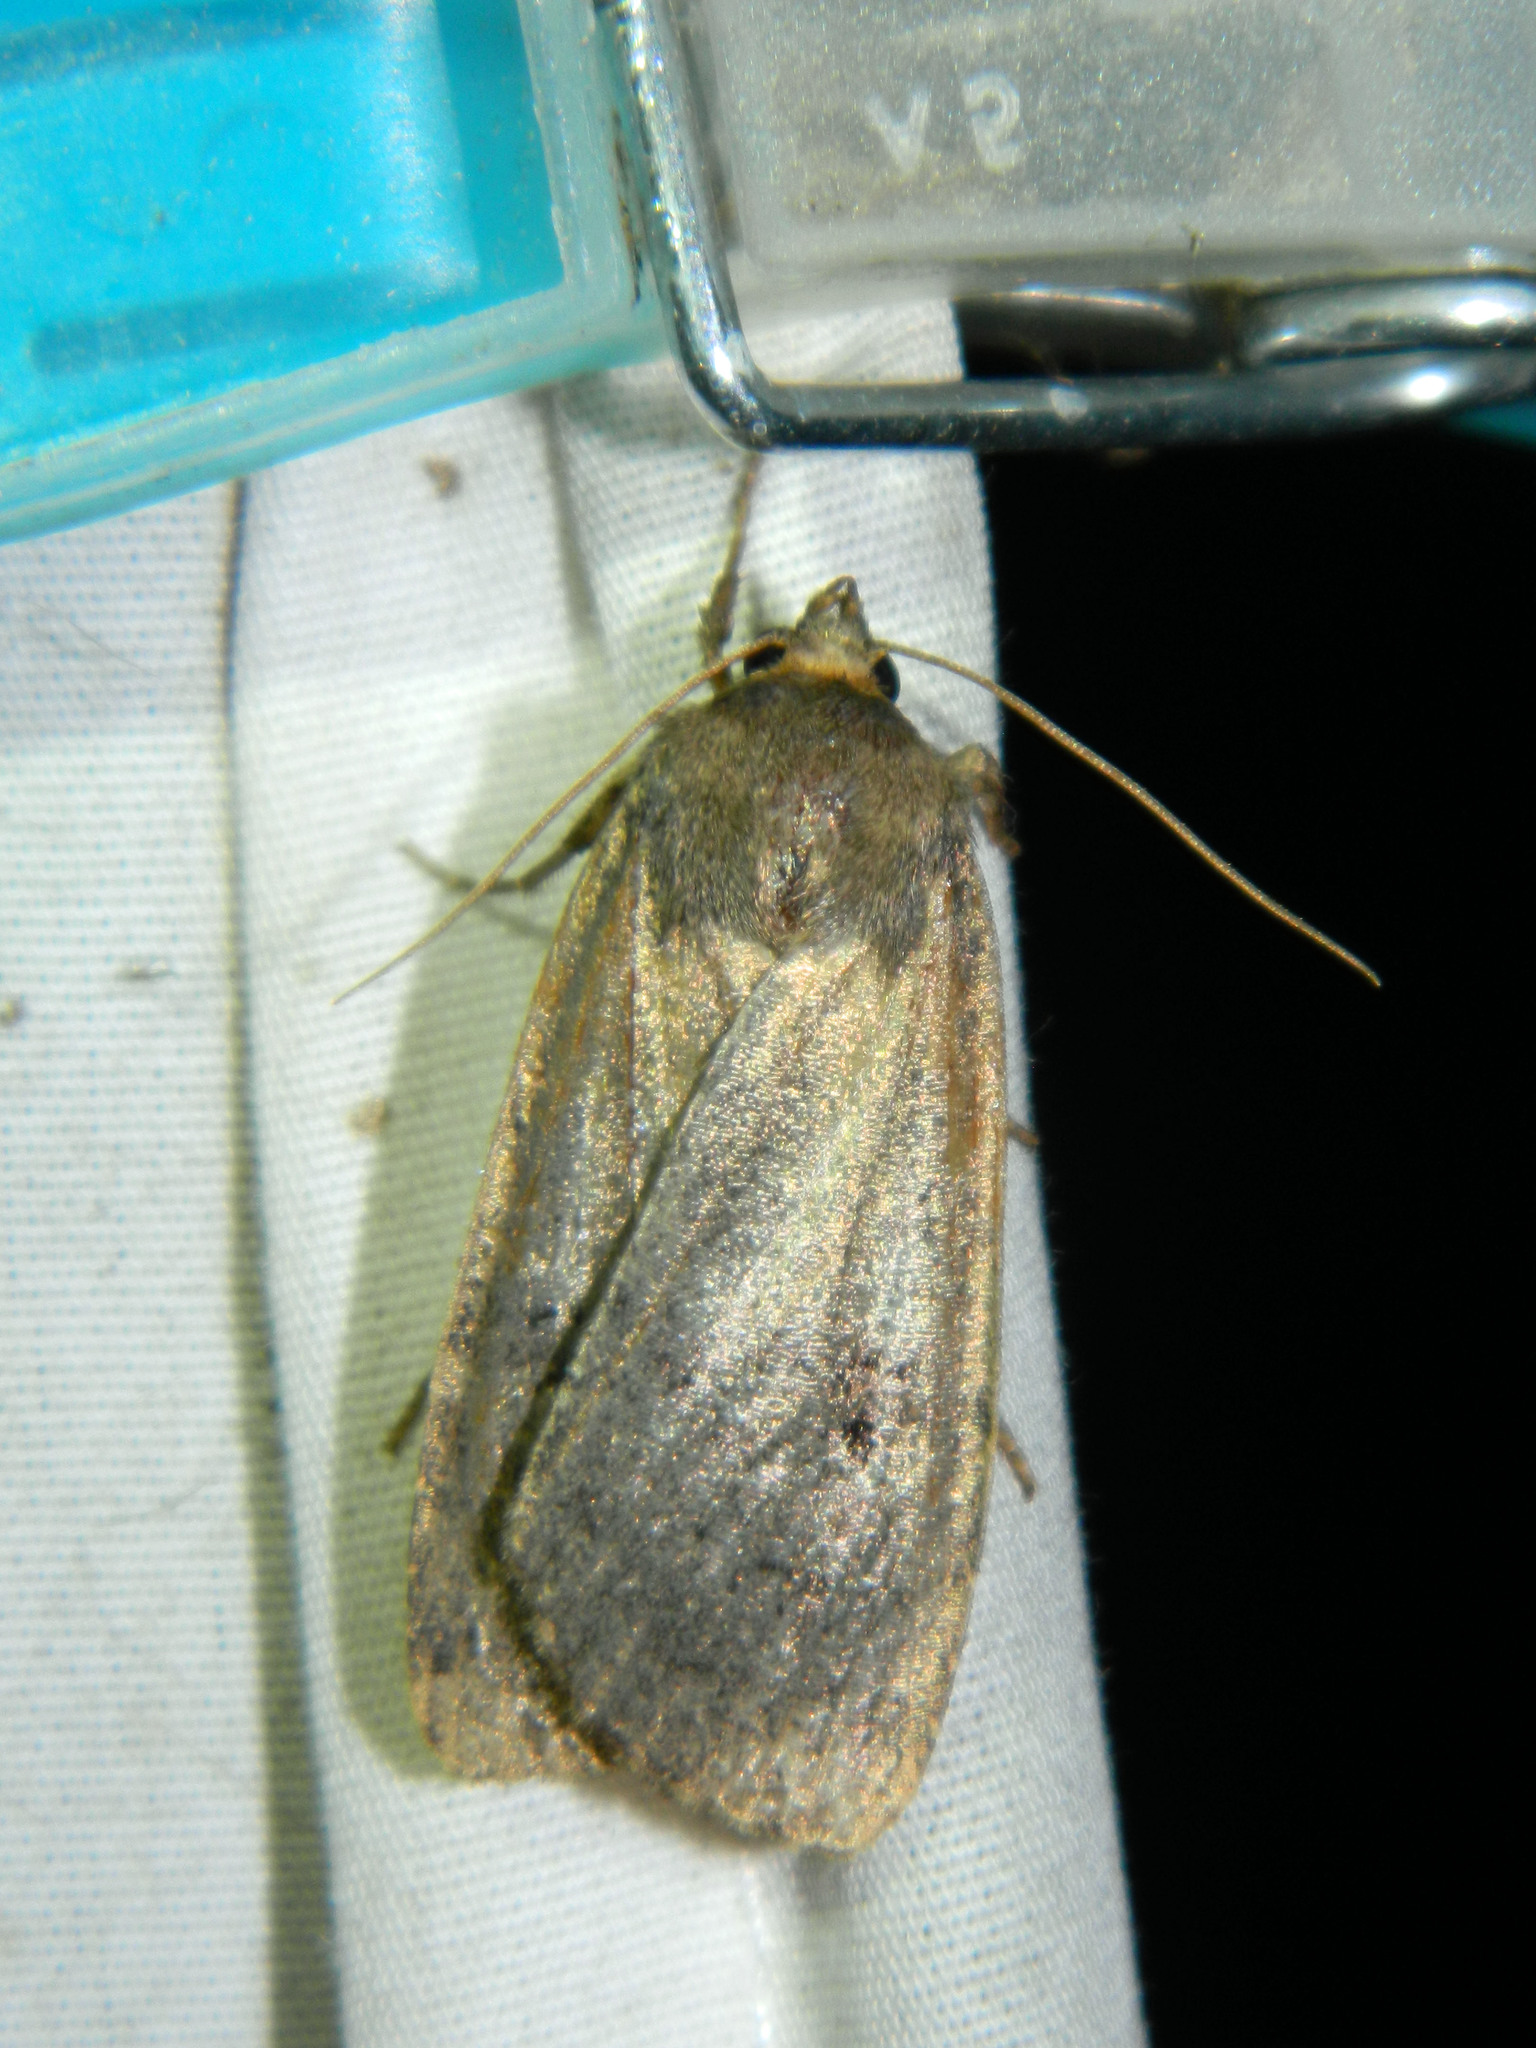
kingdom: Animalia
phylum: Arthropoda
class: Insecta
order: Lepidoptera
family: Noctuidae
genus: Graphiphora
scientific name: Graphiphora augur
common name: Double dart
